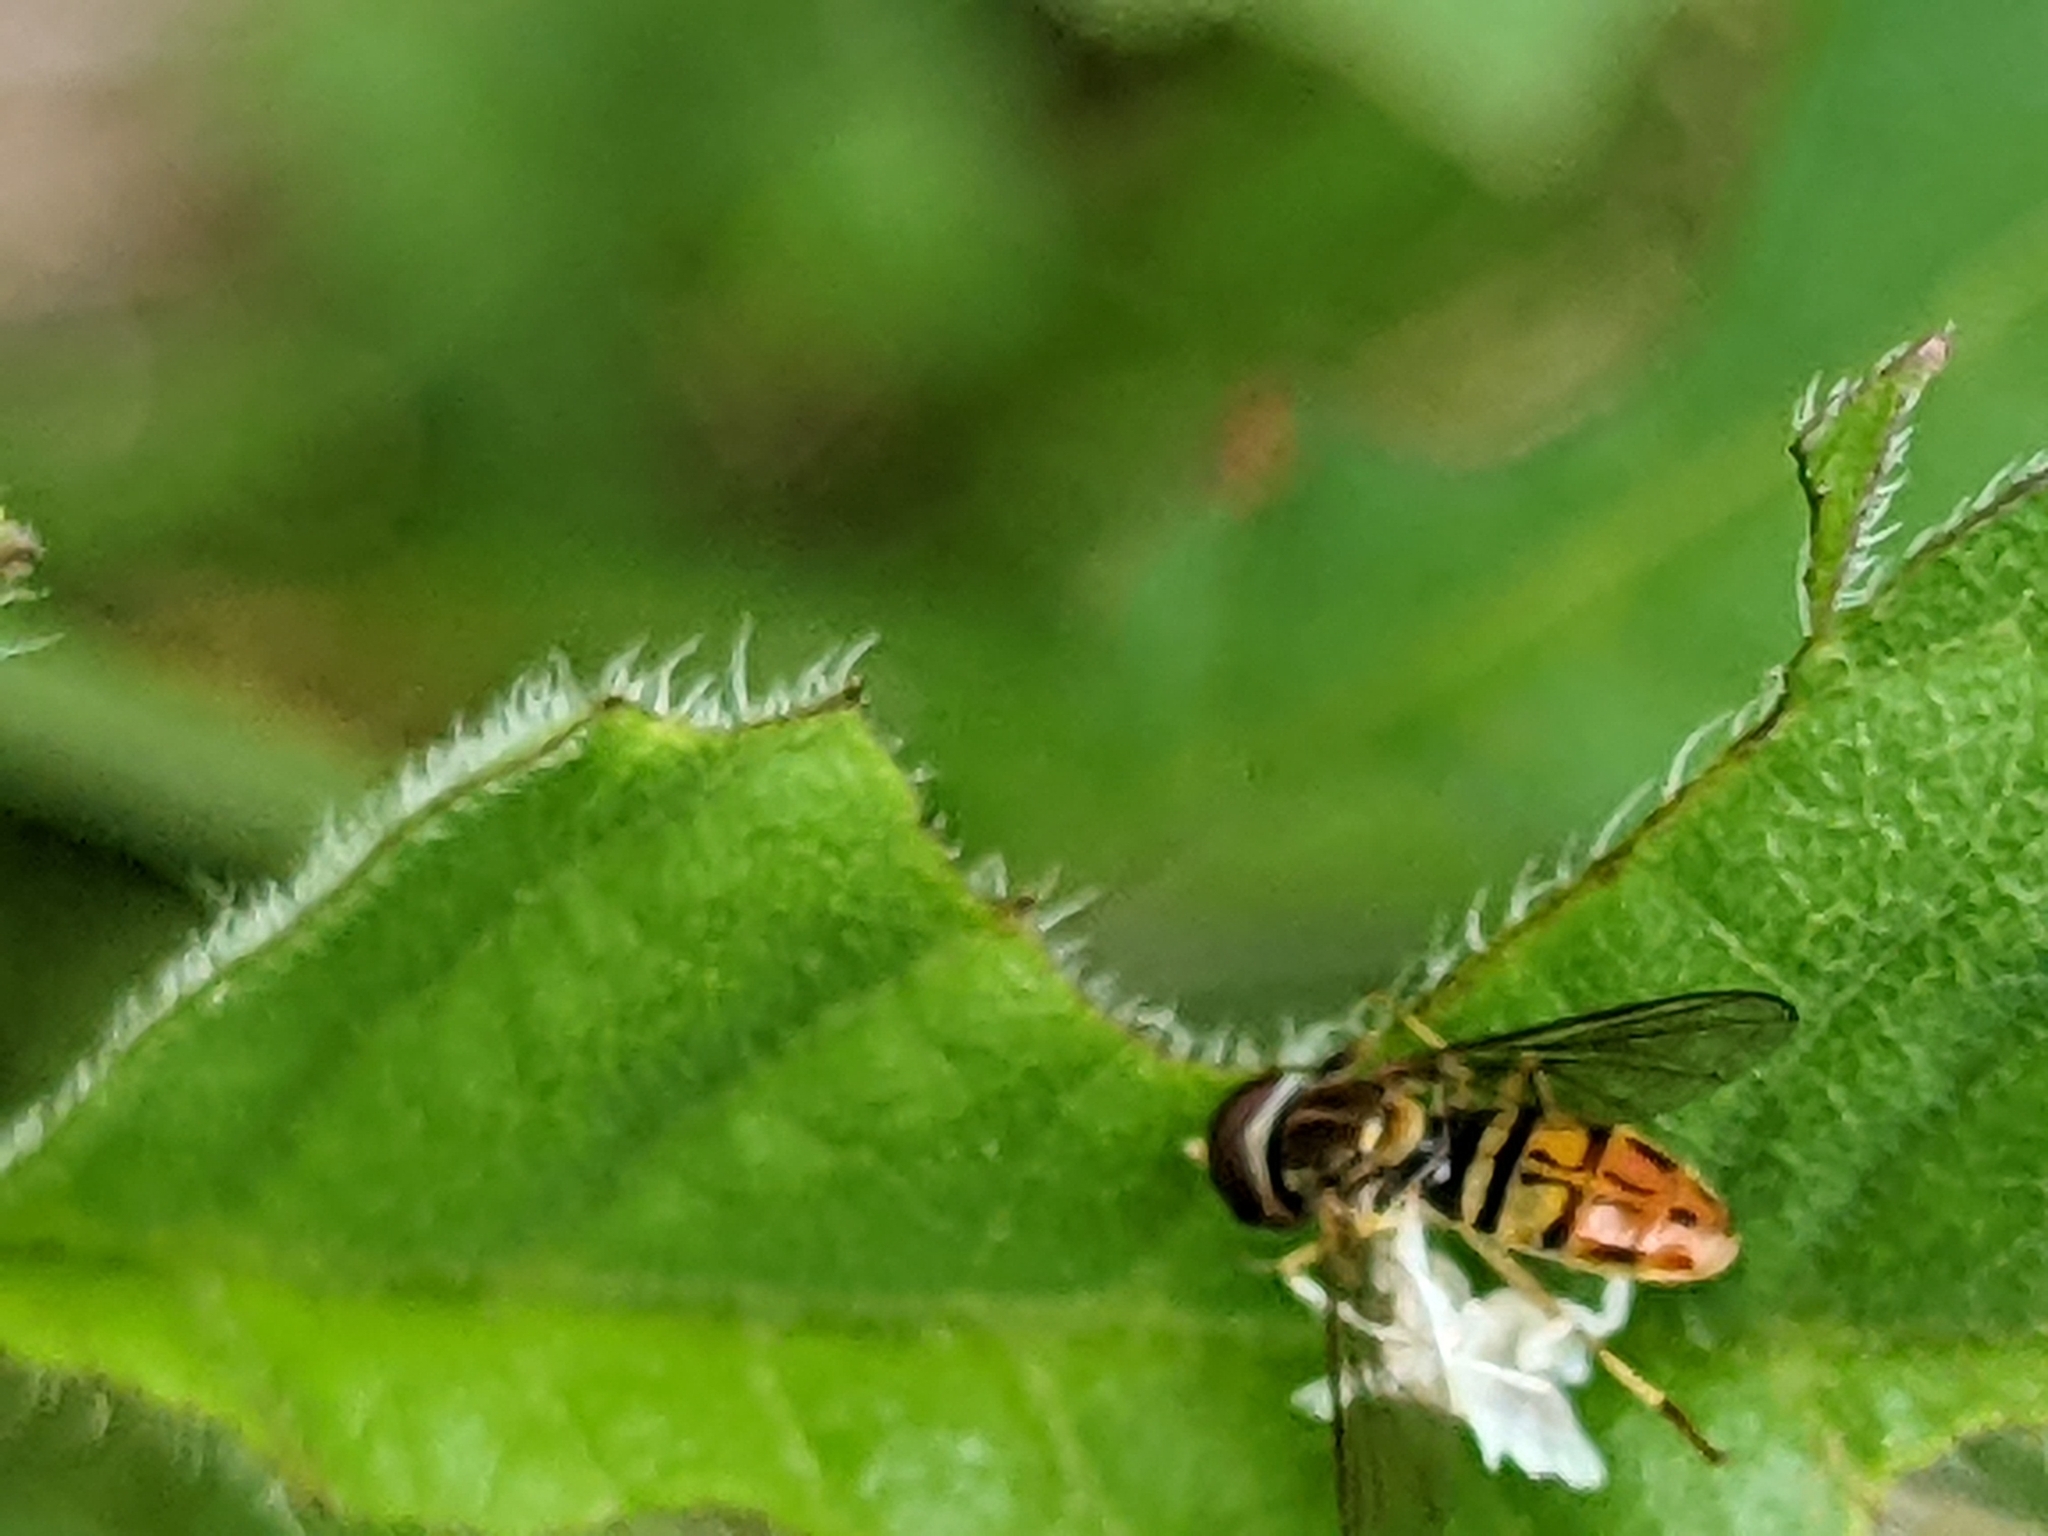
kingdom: Animalia
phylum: Arthropoda
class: Insecta
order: Diptera
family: Syrphidae
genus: Toxomerus
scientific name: Toxomerus marginatus
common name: Syrphid fly
